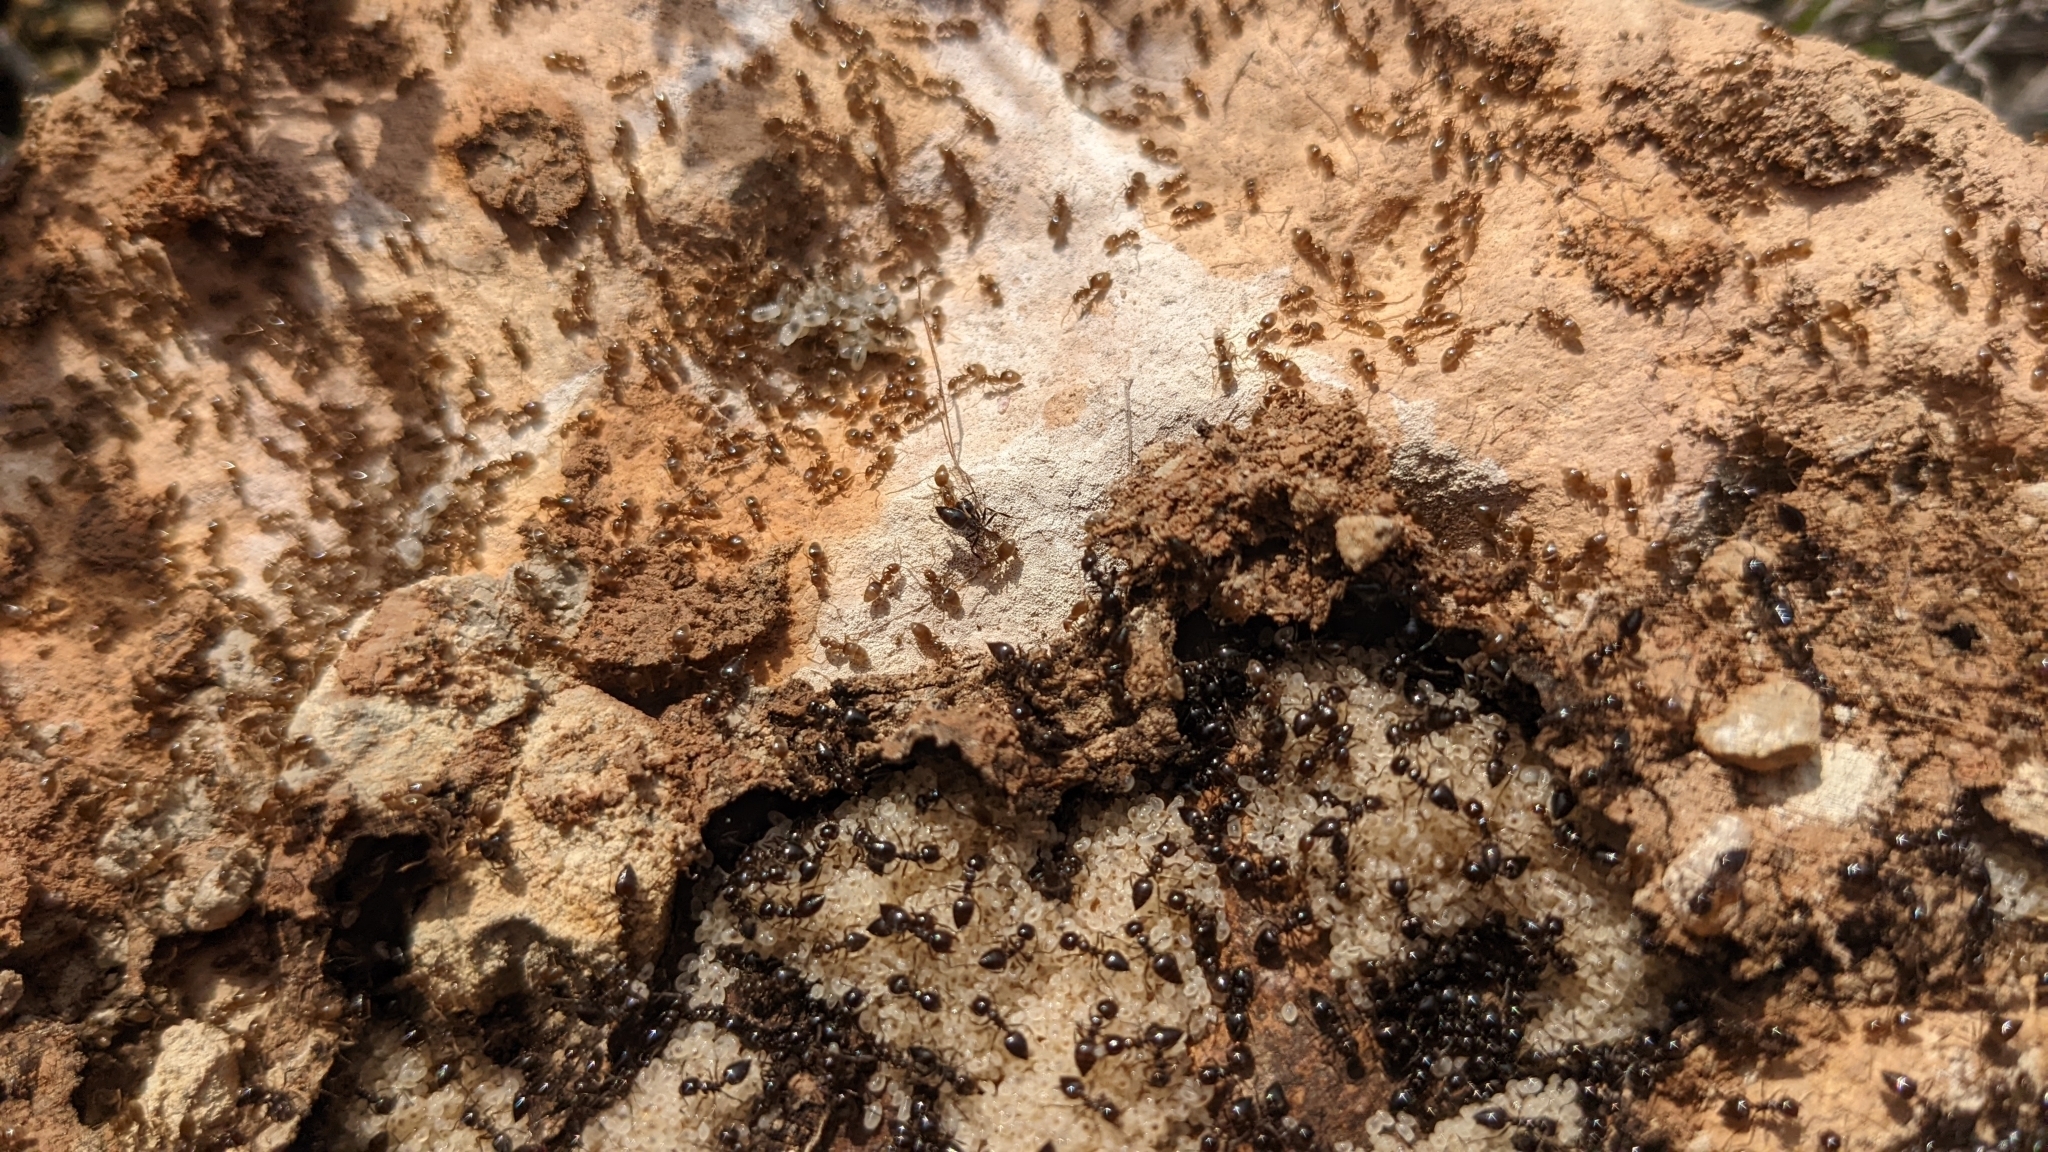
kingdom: Animalia
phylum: Arthropoda
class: Insecta
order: Hymenoptera
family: Formicidae
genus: Crematogaster
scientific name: Crematogaster auberti
